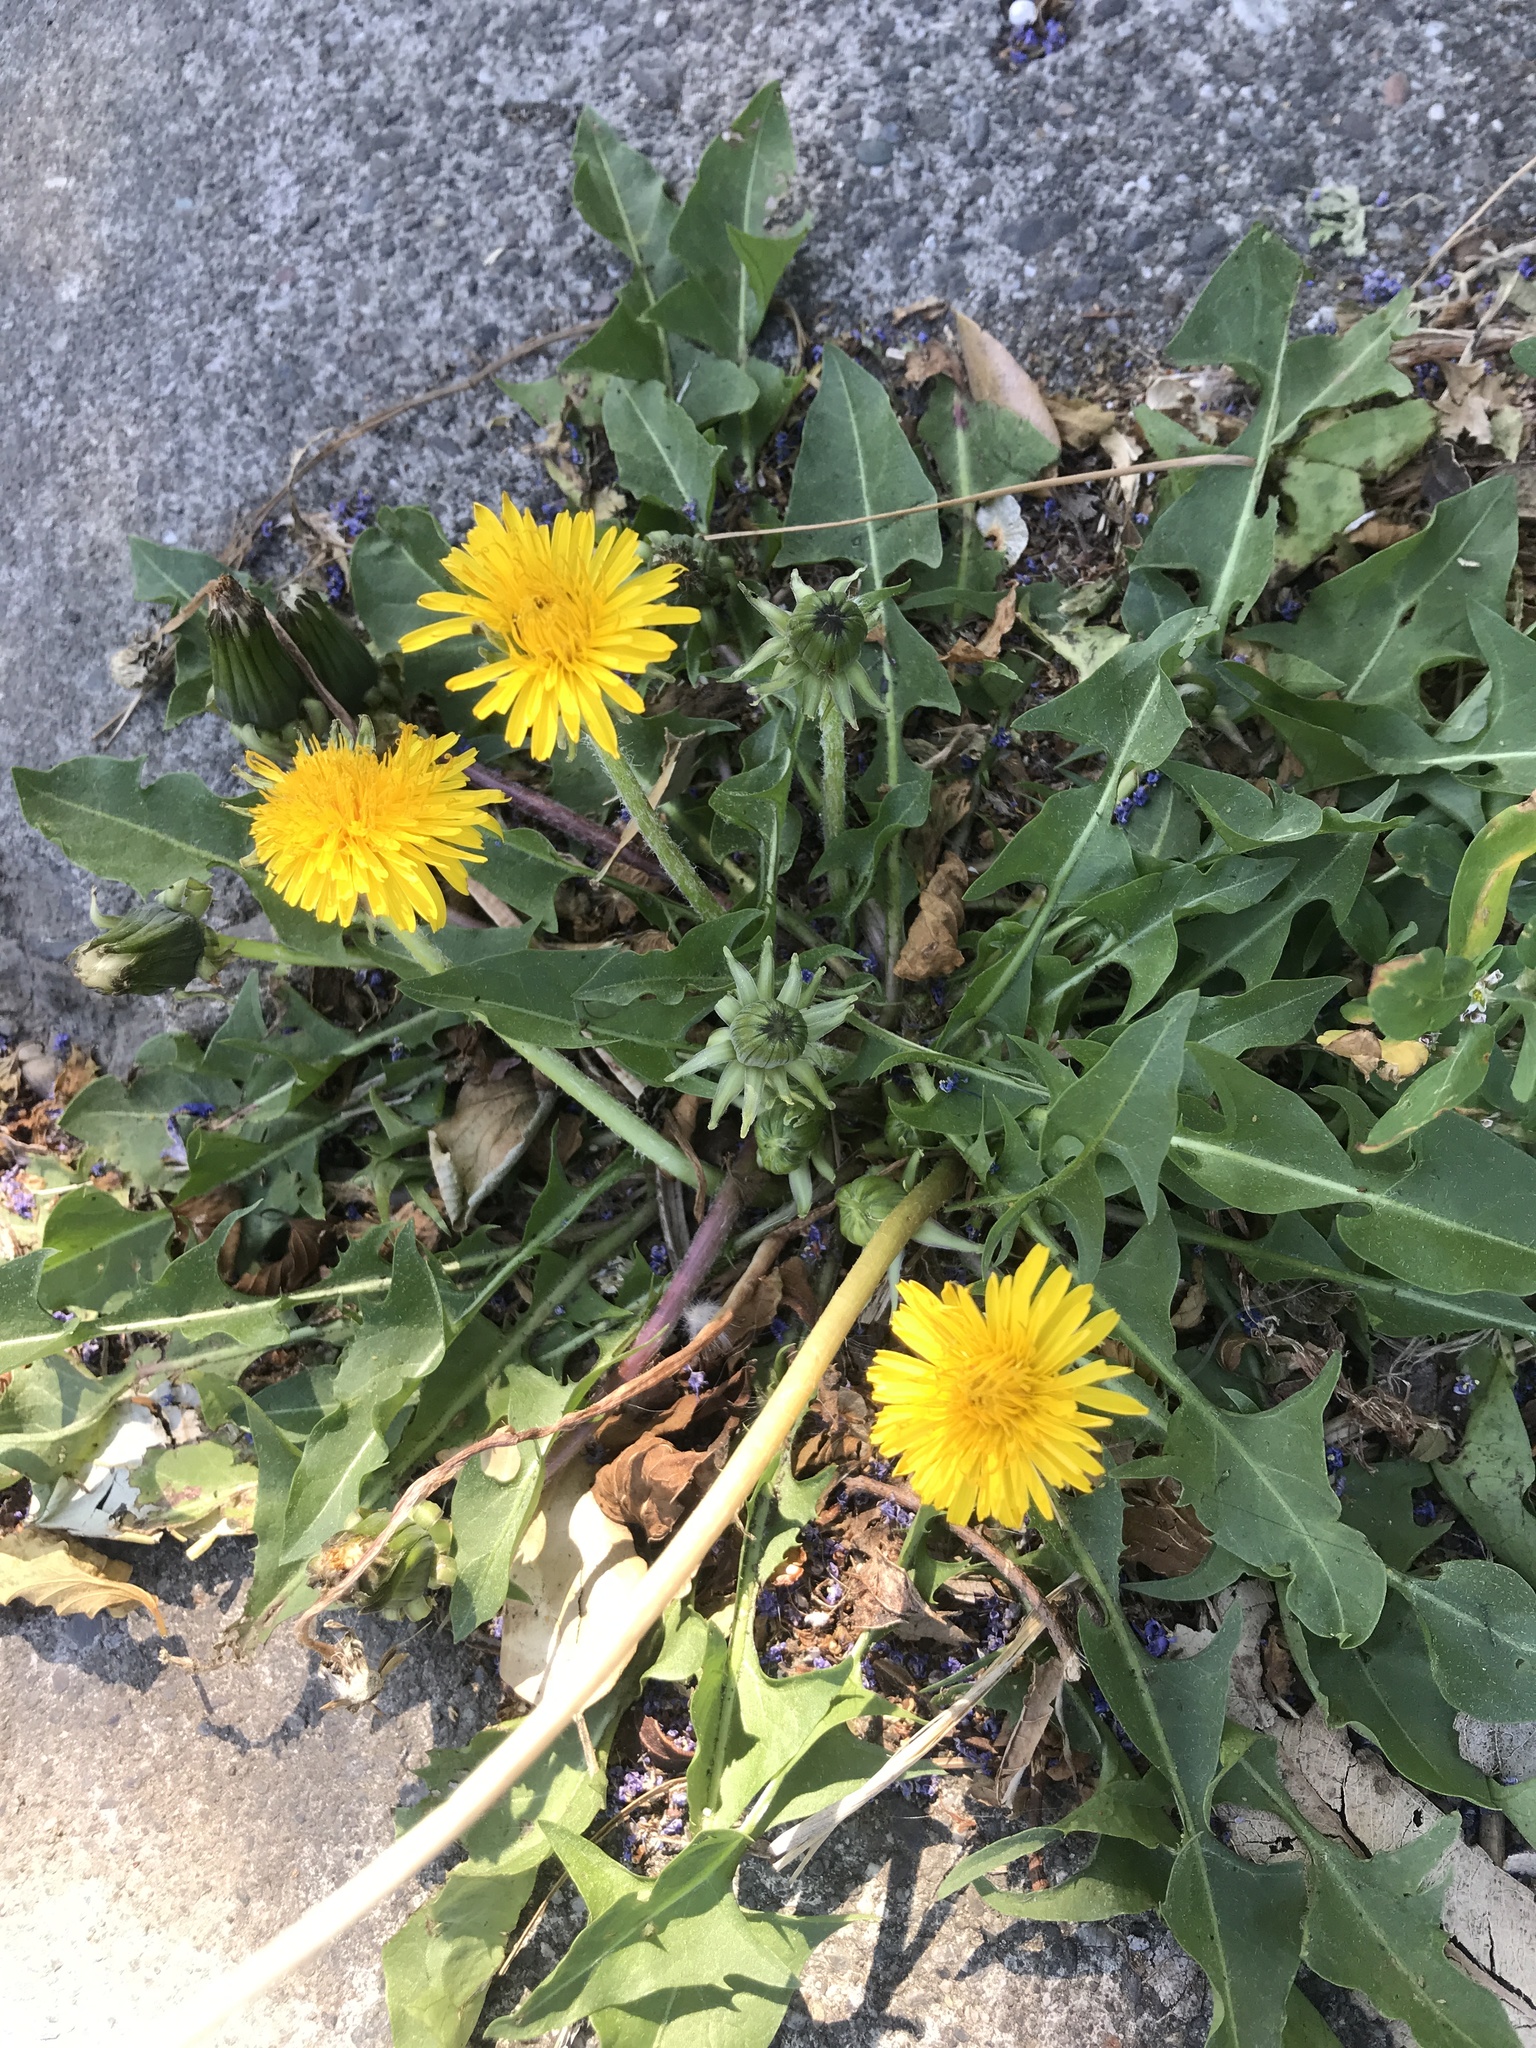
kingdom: Plantae
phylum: Tracheophyta
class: Magnoliopsida
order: Asterales
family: Asteraceae
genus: Taraxacum
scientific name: Taraxacum officinale
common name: Common dandelion
